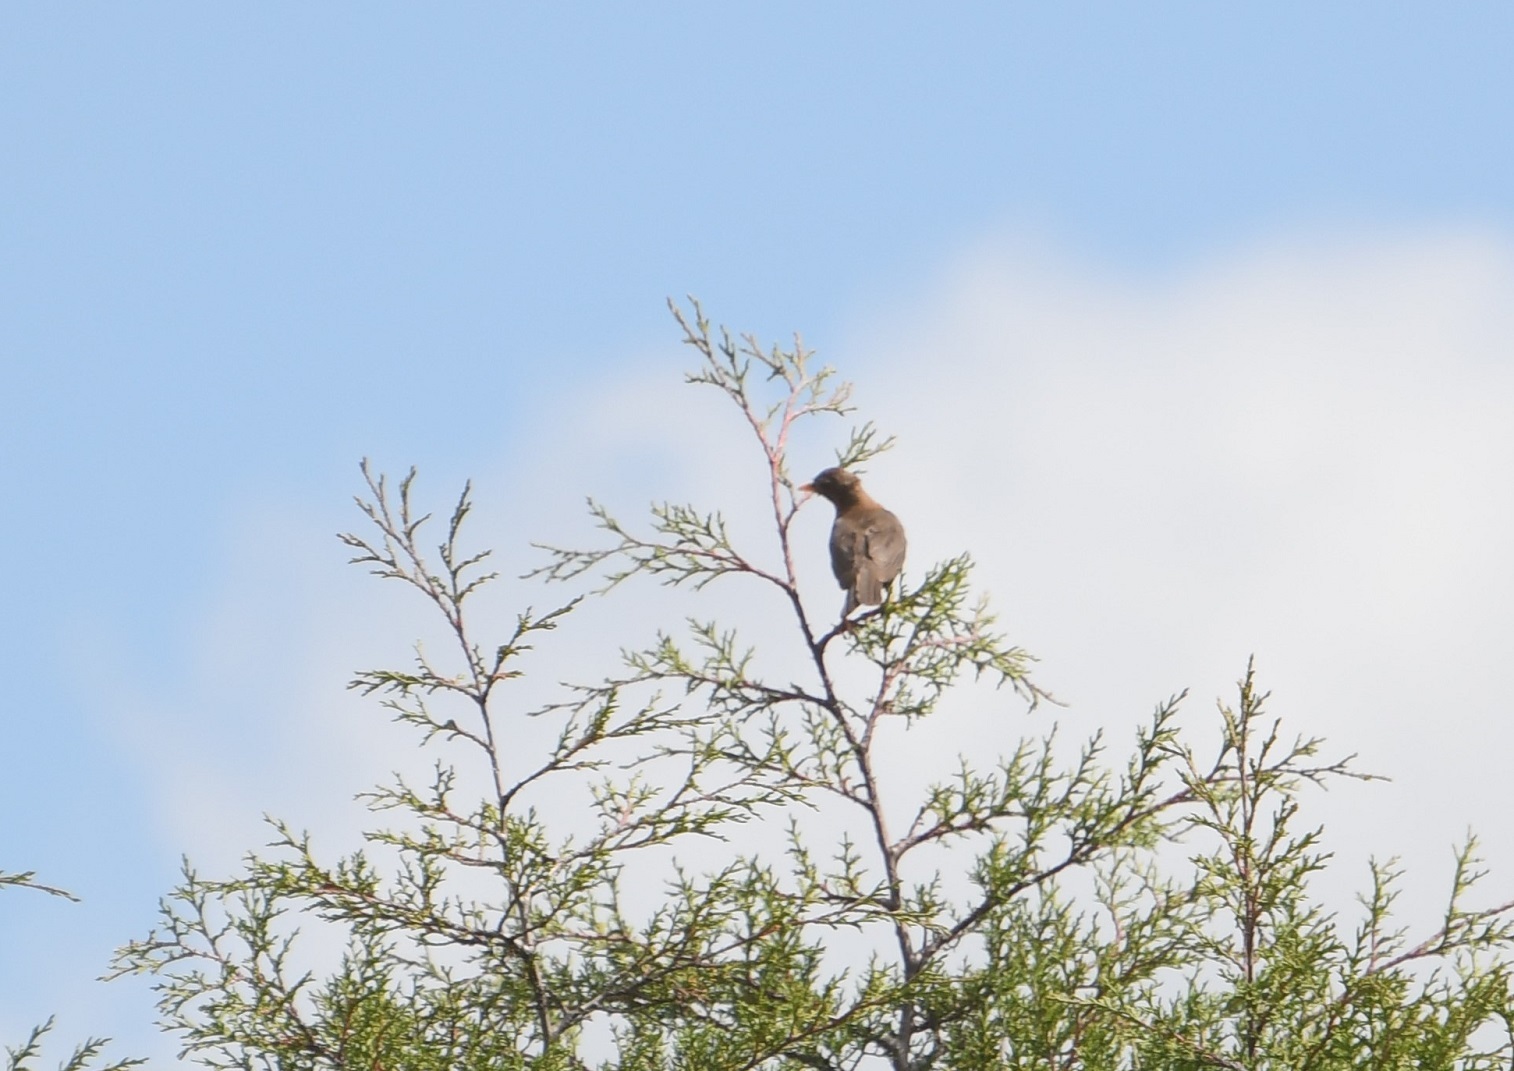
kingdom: Animalia
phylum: Chordata
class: Aves
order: Passeriformes
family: Turdidae
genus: Turdus
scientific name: Turdus rufitorques
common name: Rufous-collared thrush
